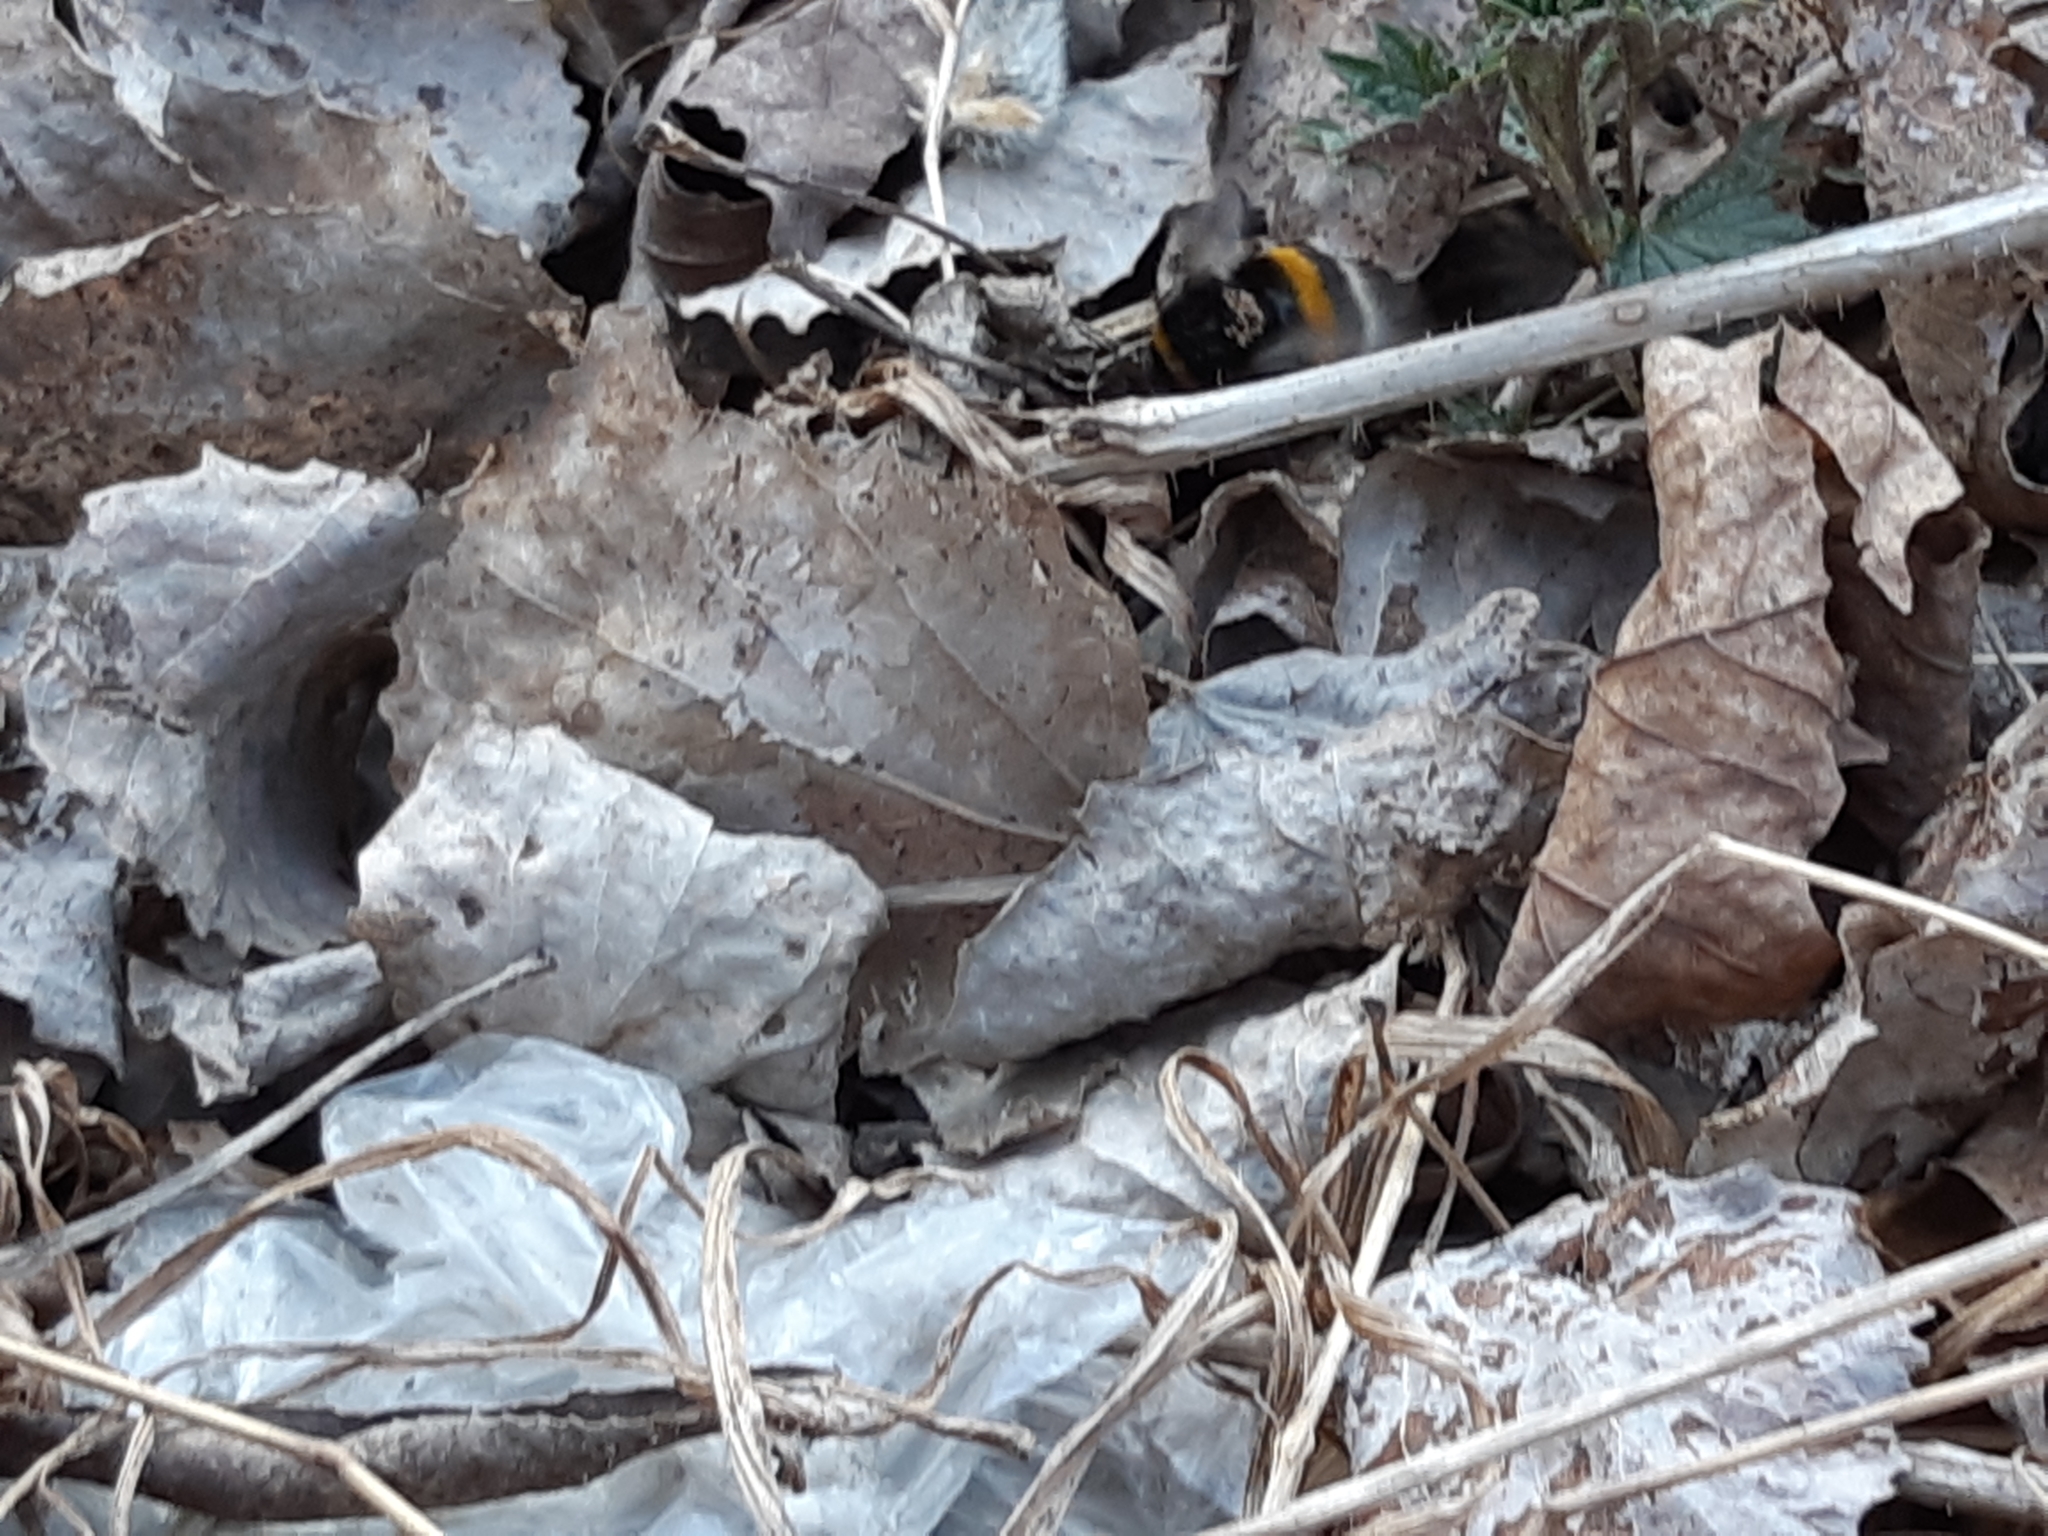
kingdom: Animalia
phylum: Arthropoda
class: Insecta
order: Hymenoptera
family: Apidae
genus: Bombus
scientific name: Bombus
